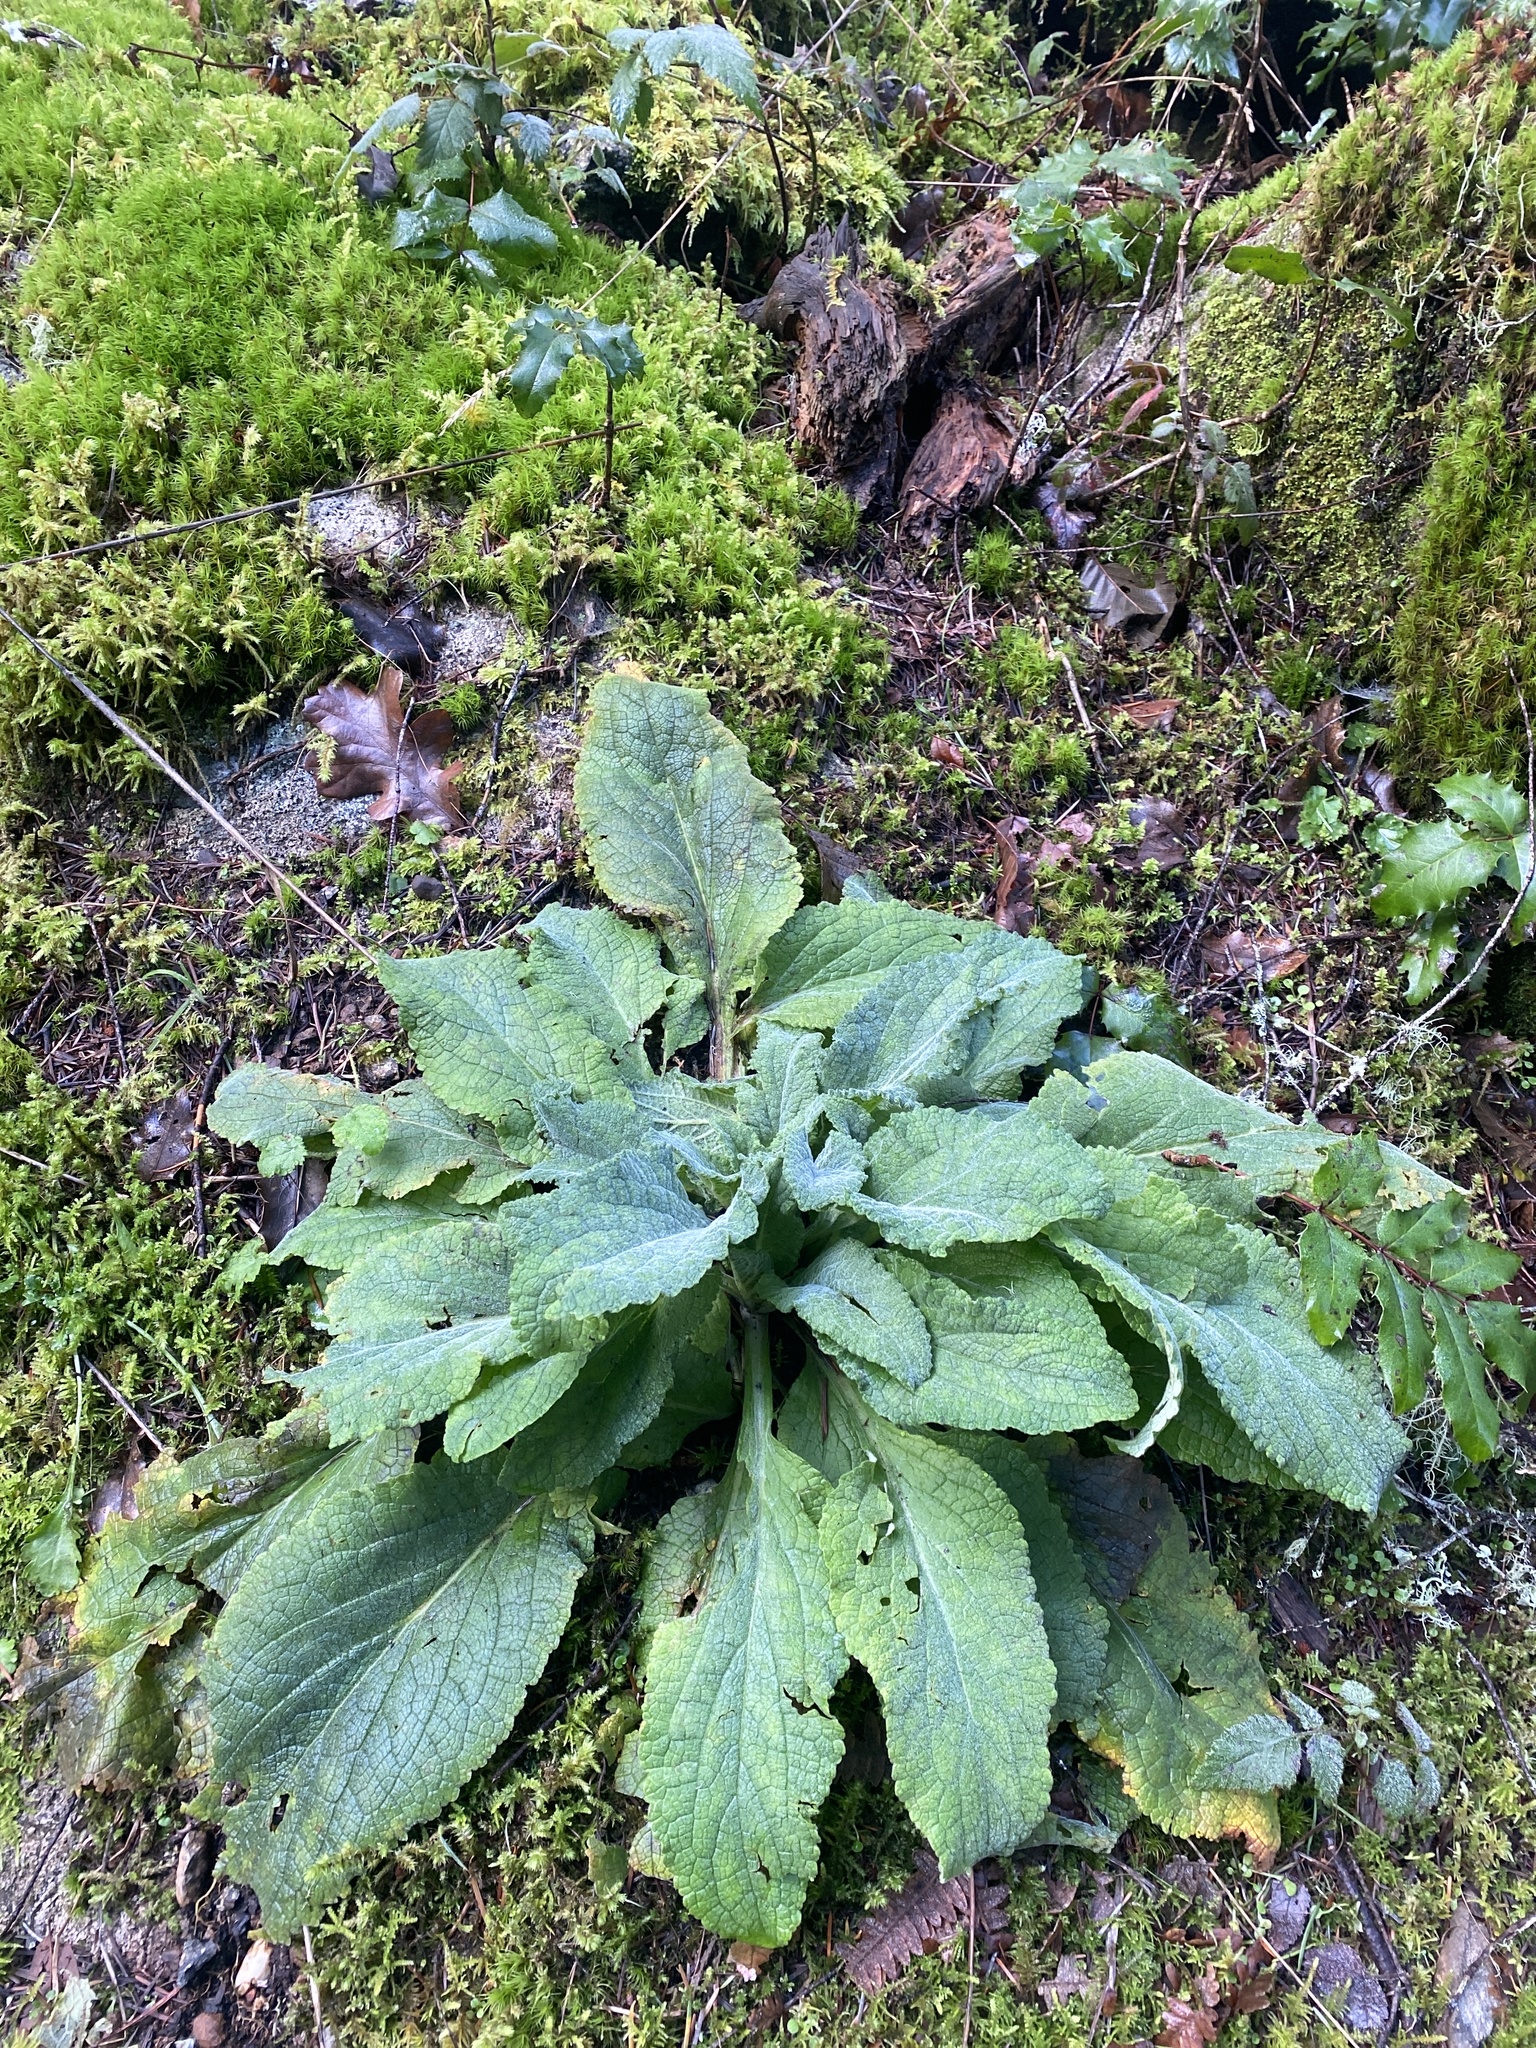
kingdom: Plantae
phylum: Tracheophyta
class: Magnoliopsida
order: Lamiales
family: Plantaginaceae
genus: Digitalis
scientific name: Digitalis purpurea
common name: Foxglove
